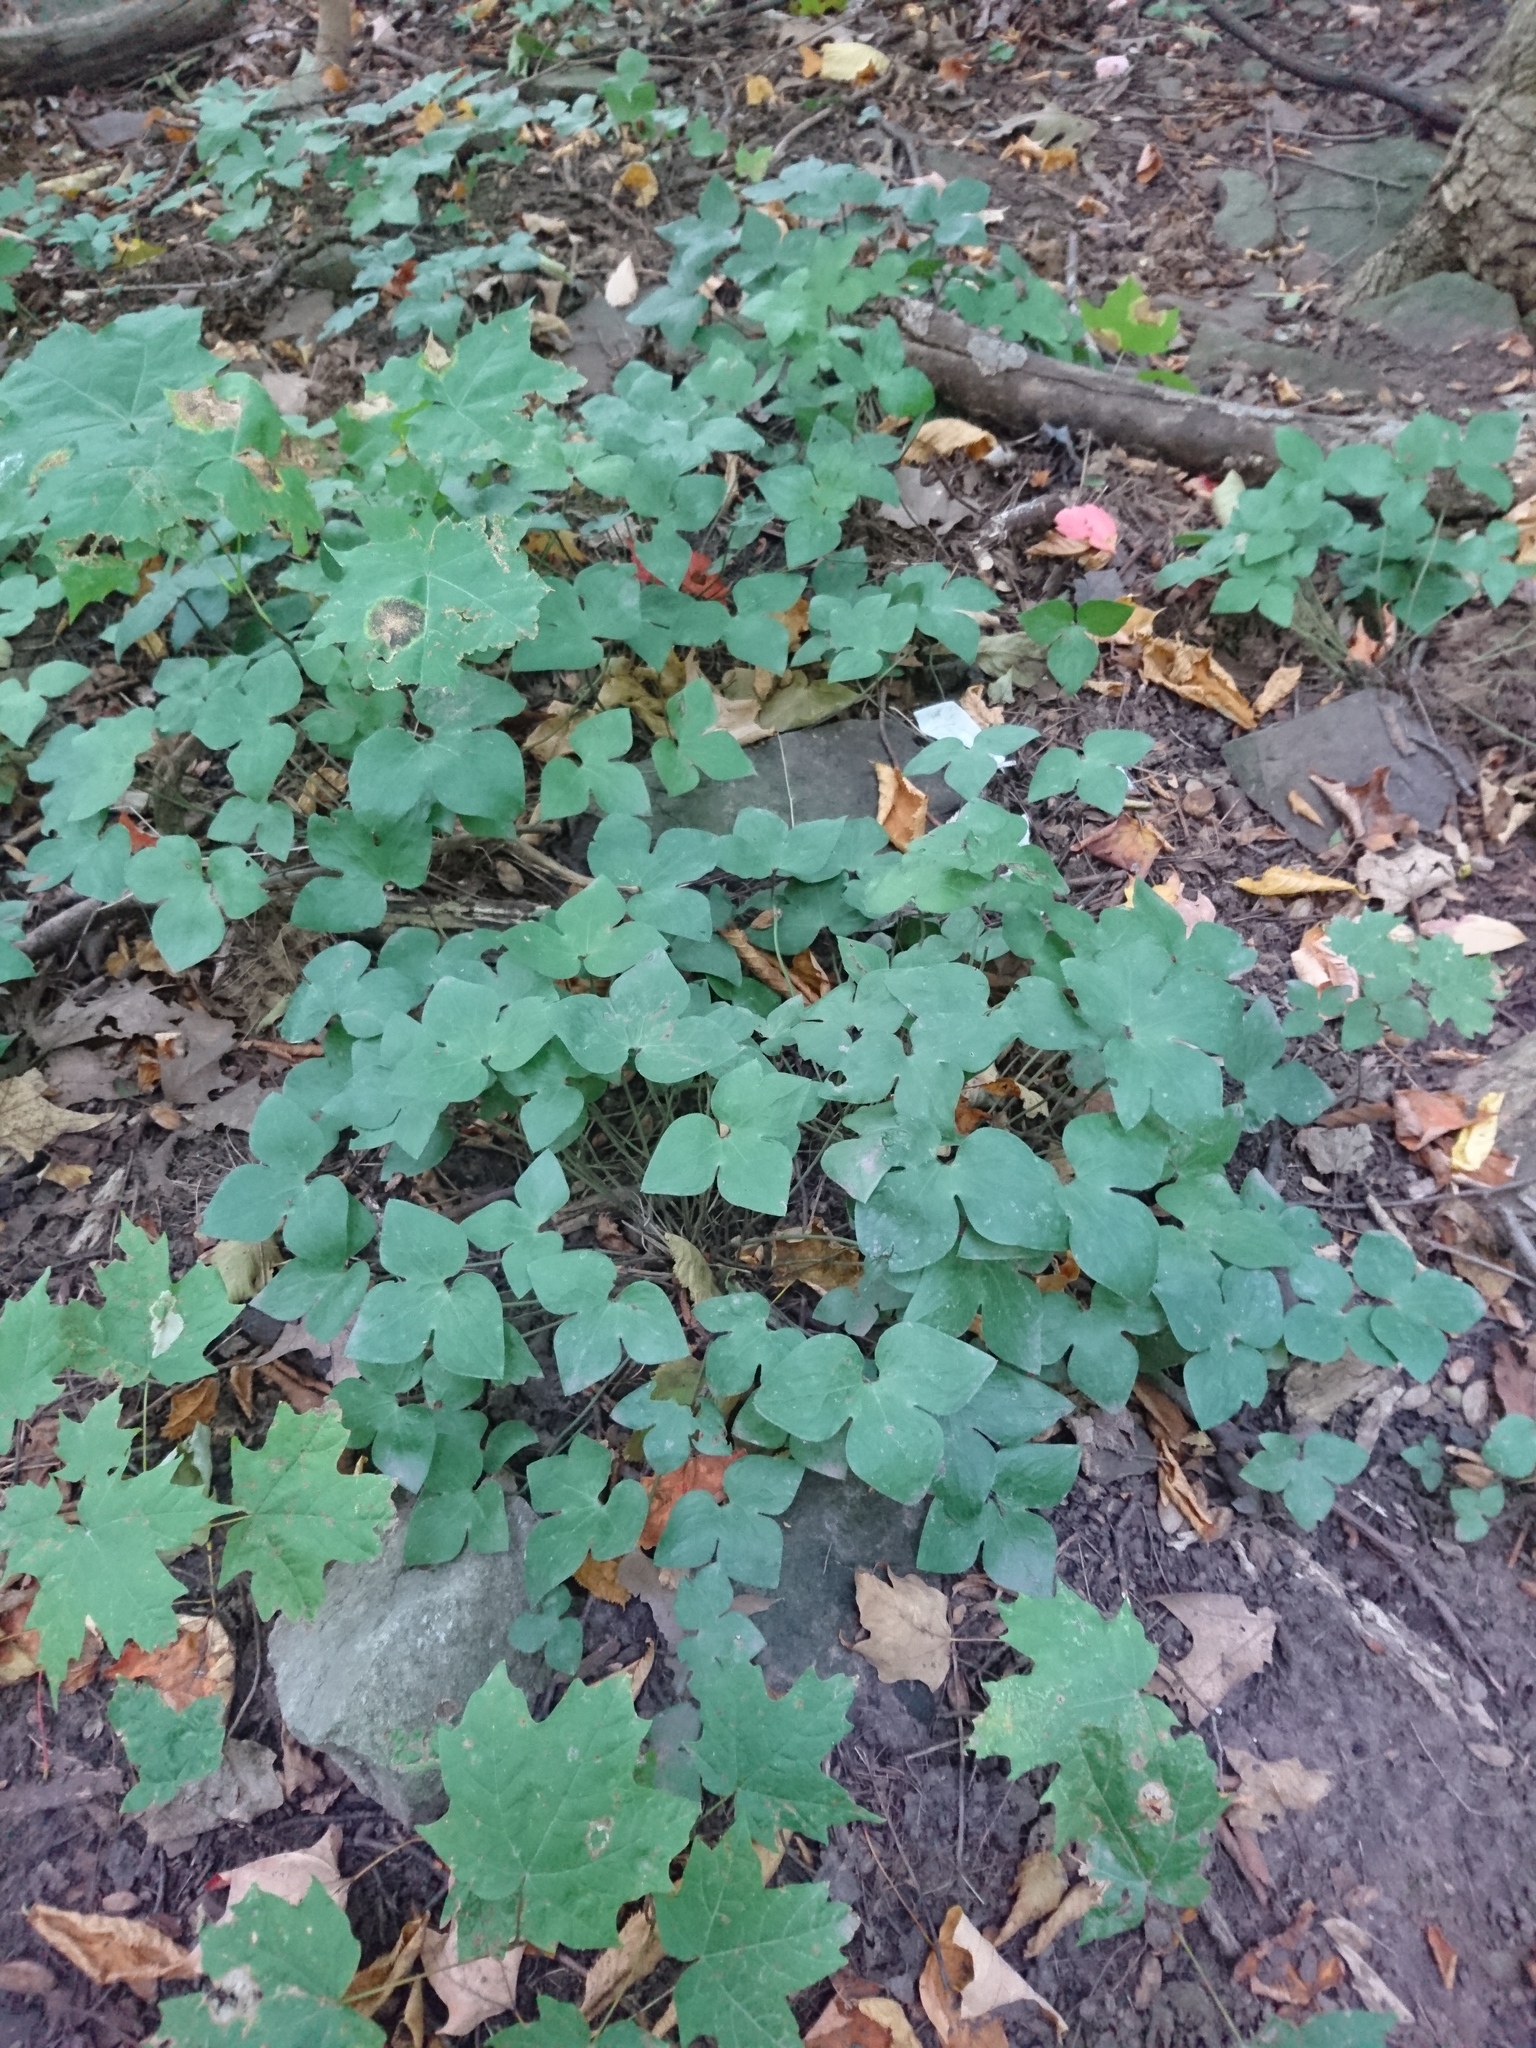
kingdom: Plantae
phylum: Tracheophyta
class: Magnoliopsida
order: Ranunculales
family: Ranunculaceae
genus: Hepatica
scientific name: Hepatica acutiloba
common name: Sharp-lobed hepatica
